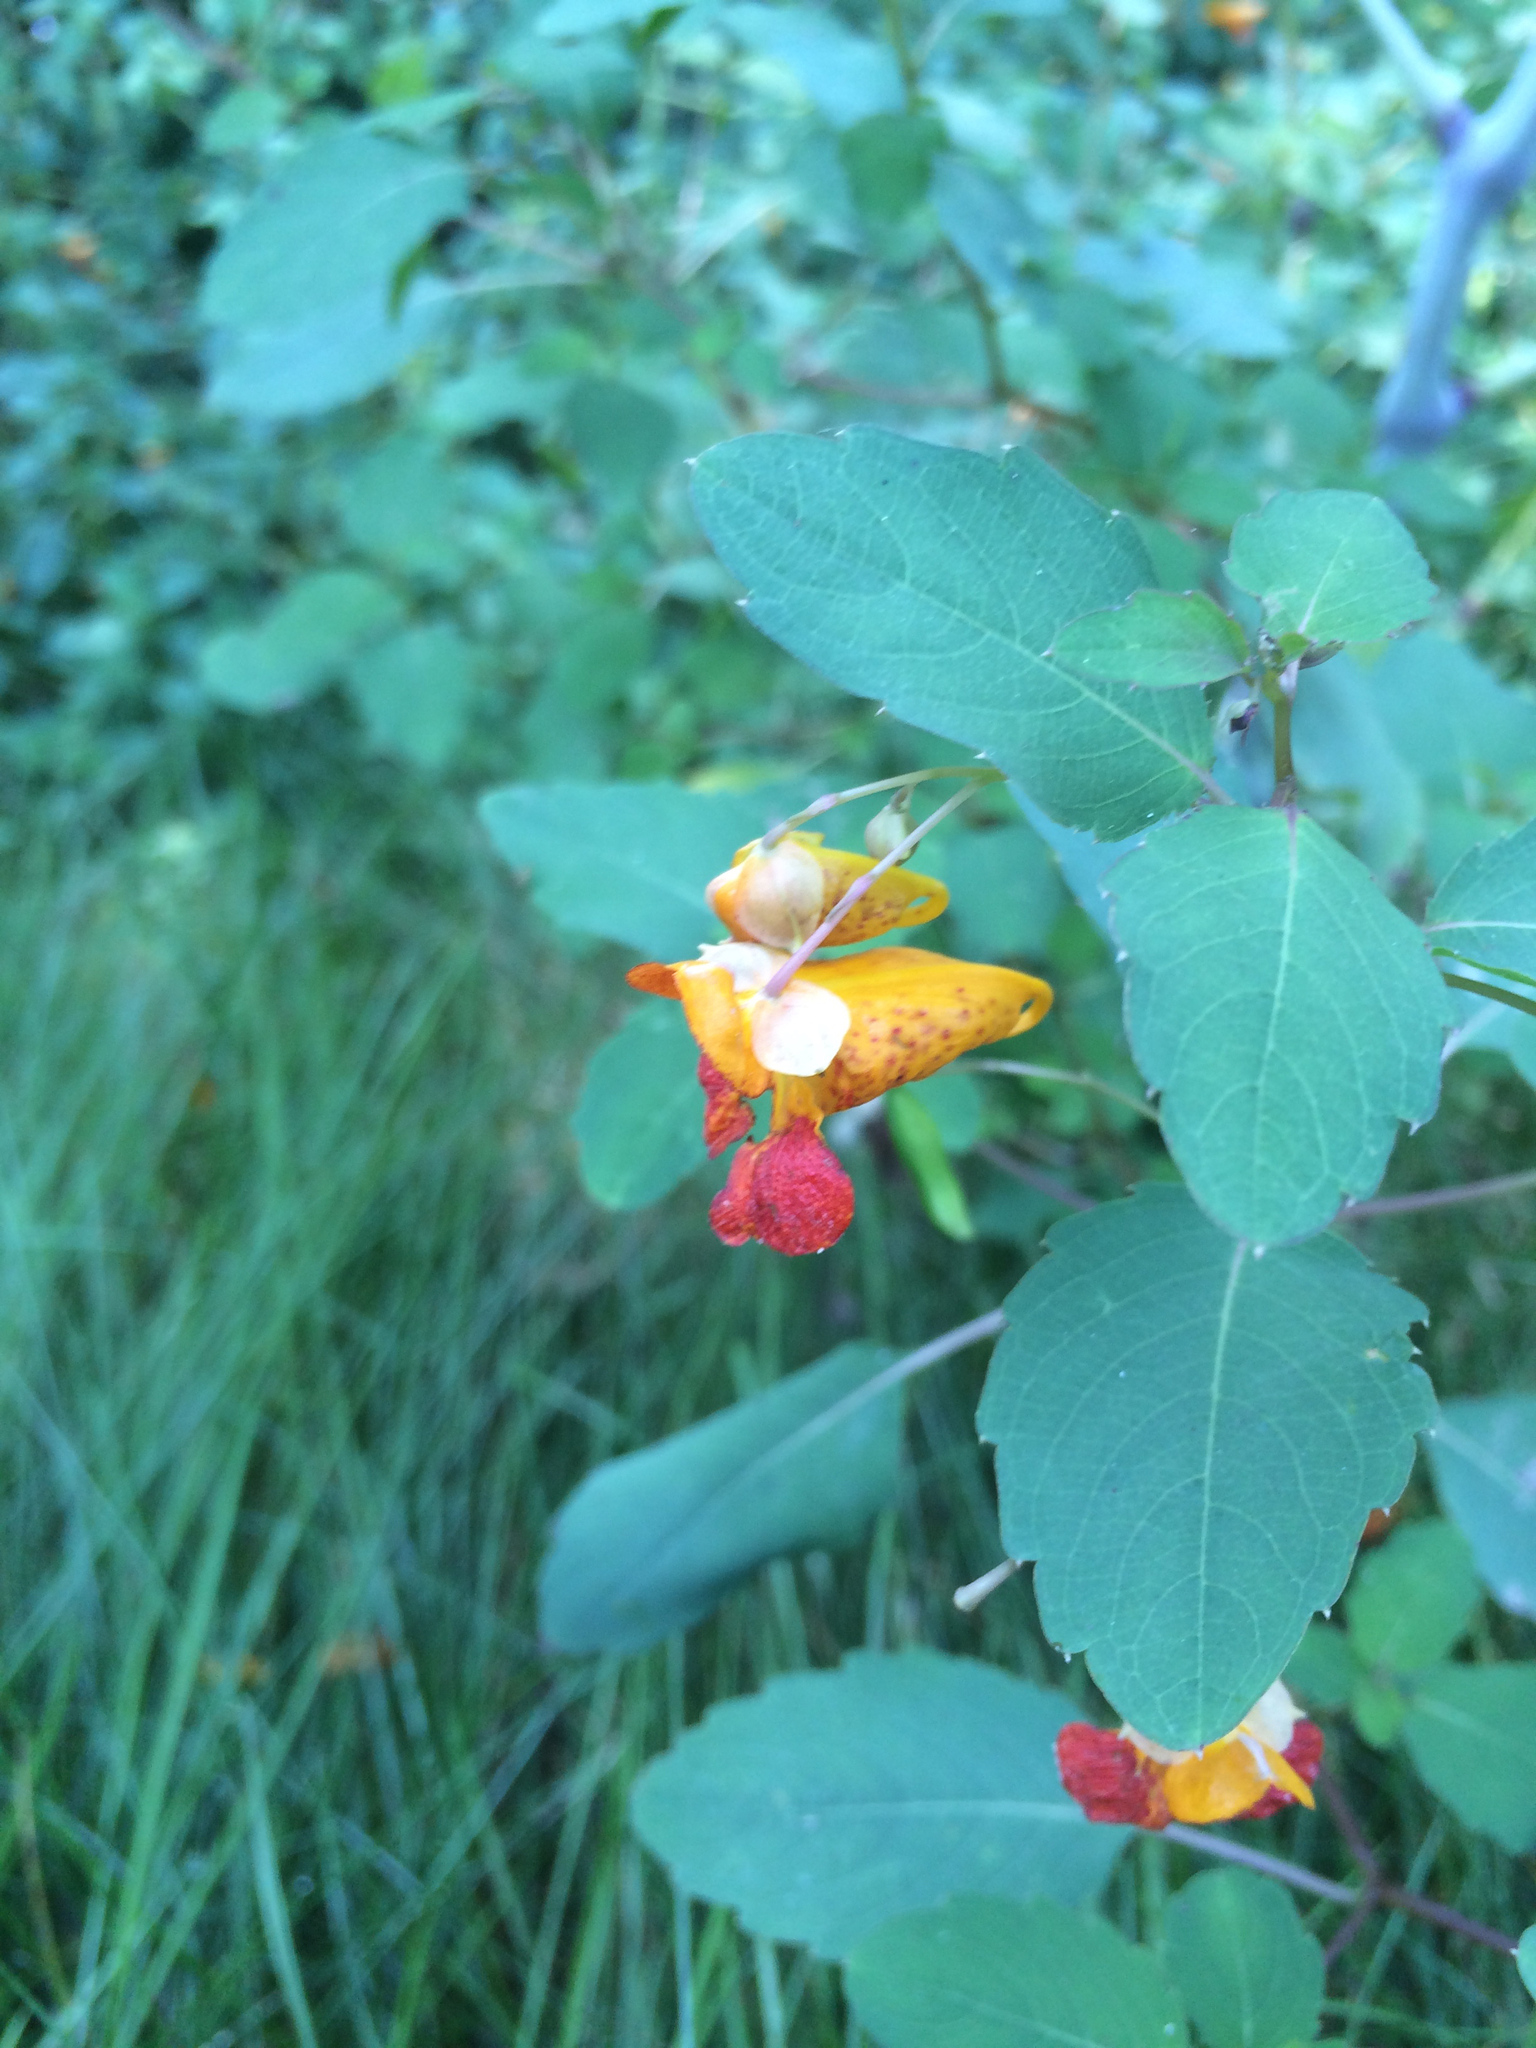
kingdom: Plantae
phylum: Tracheophyta
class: Magnoliopsida
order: Ericales
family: Balsaminaceae
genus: Impatiens
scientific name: Impatiens capensis
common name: Orange balsam
